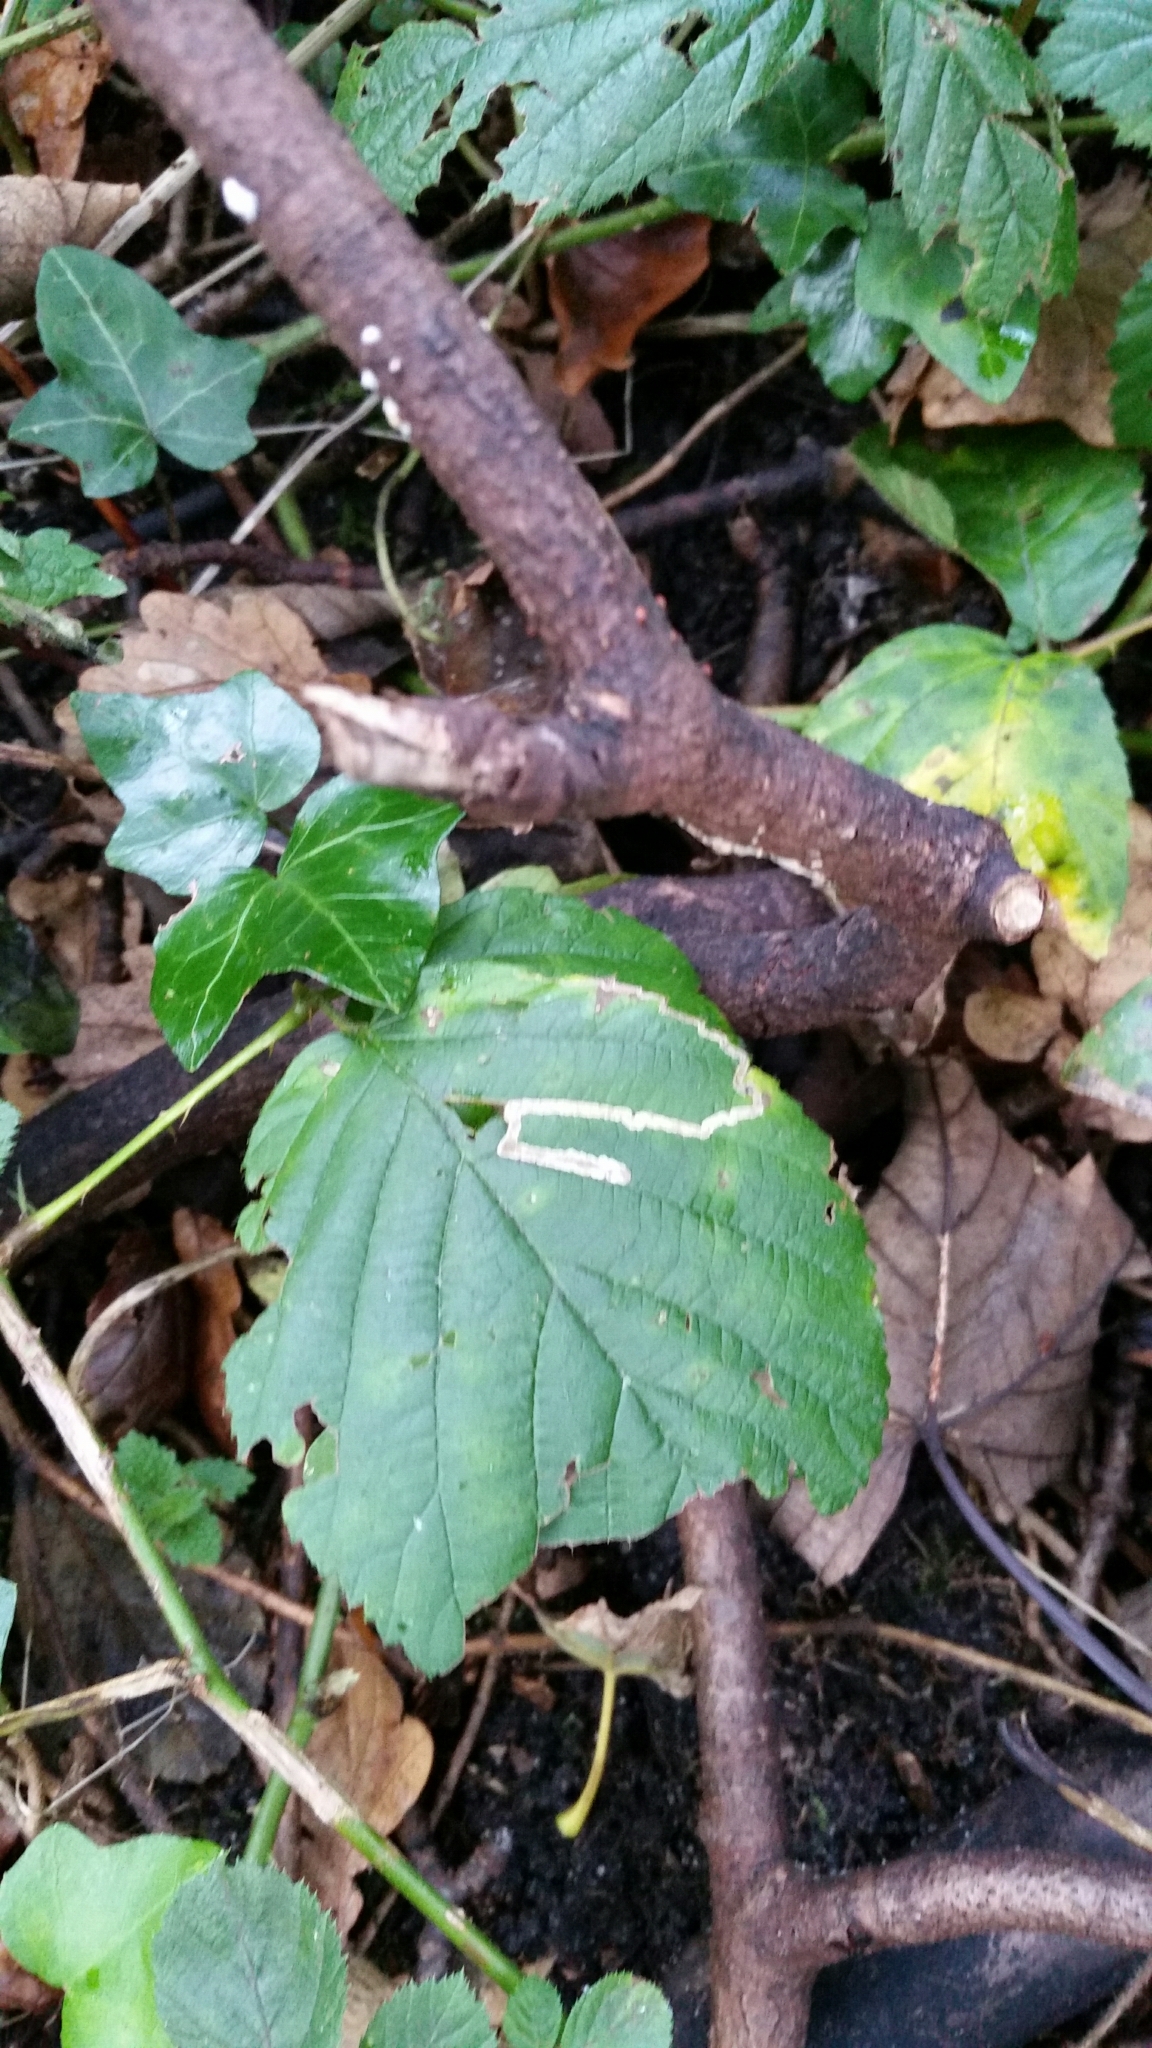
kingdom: Animalia
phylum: Arthropoda
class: Insecta
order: Lepidoptera
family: Nepticulidae
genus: Stigmella
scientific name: Stigmella aurella
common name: Golden pigmy
